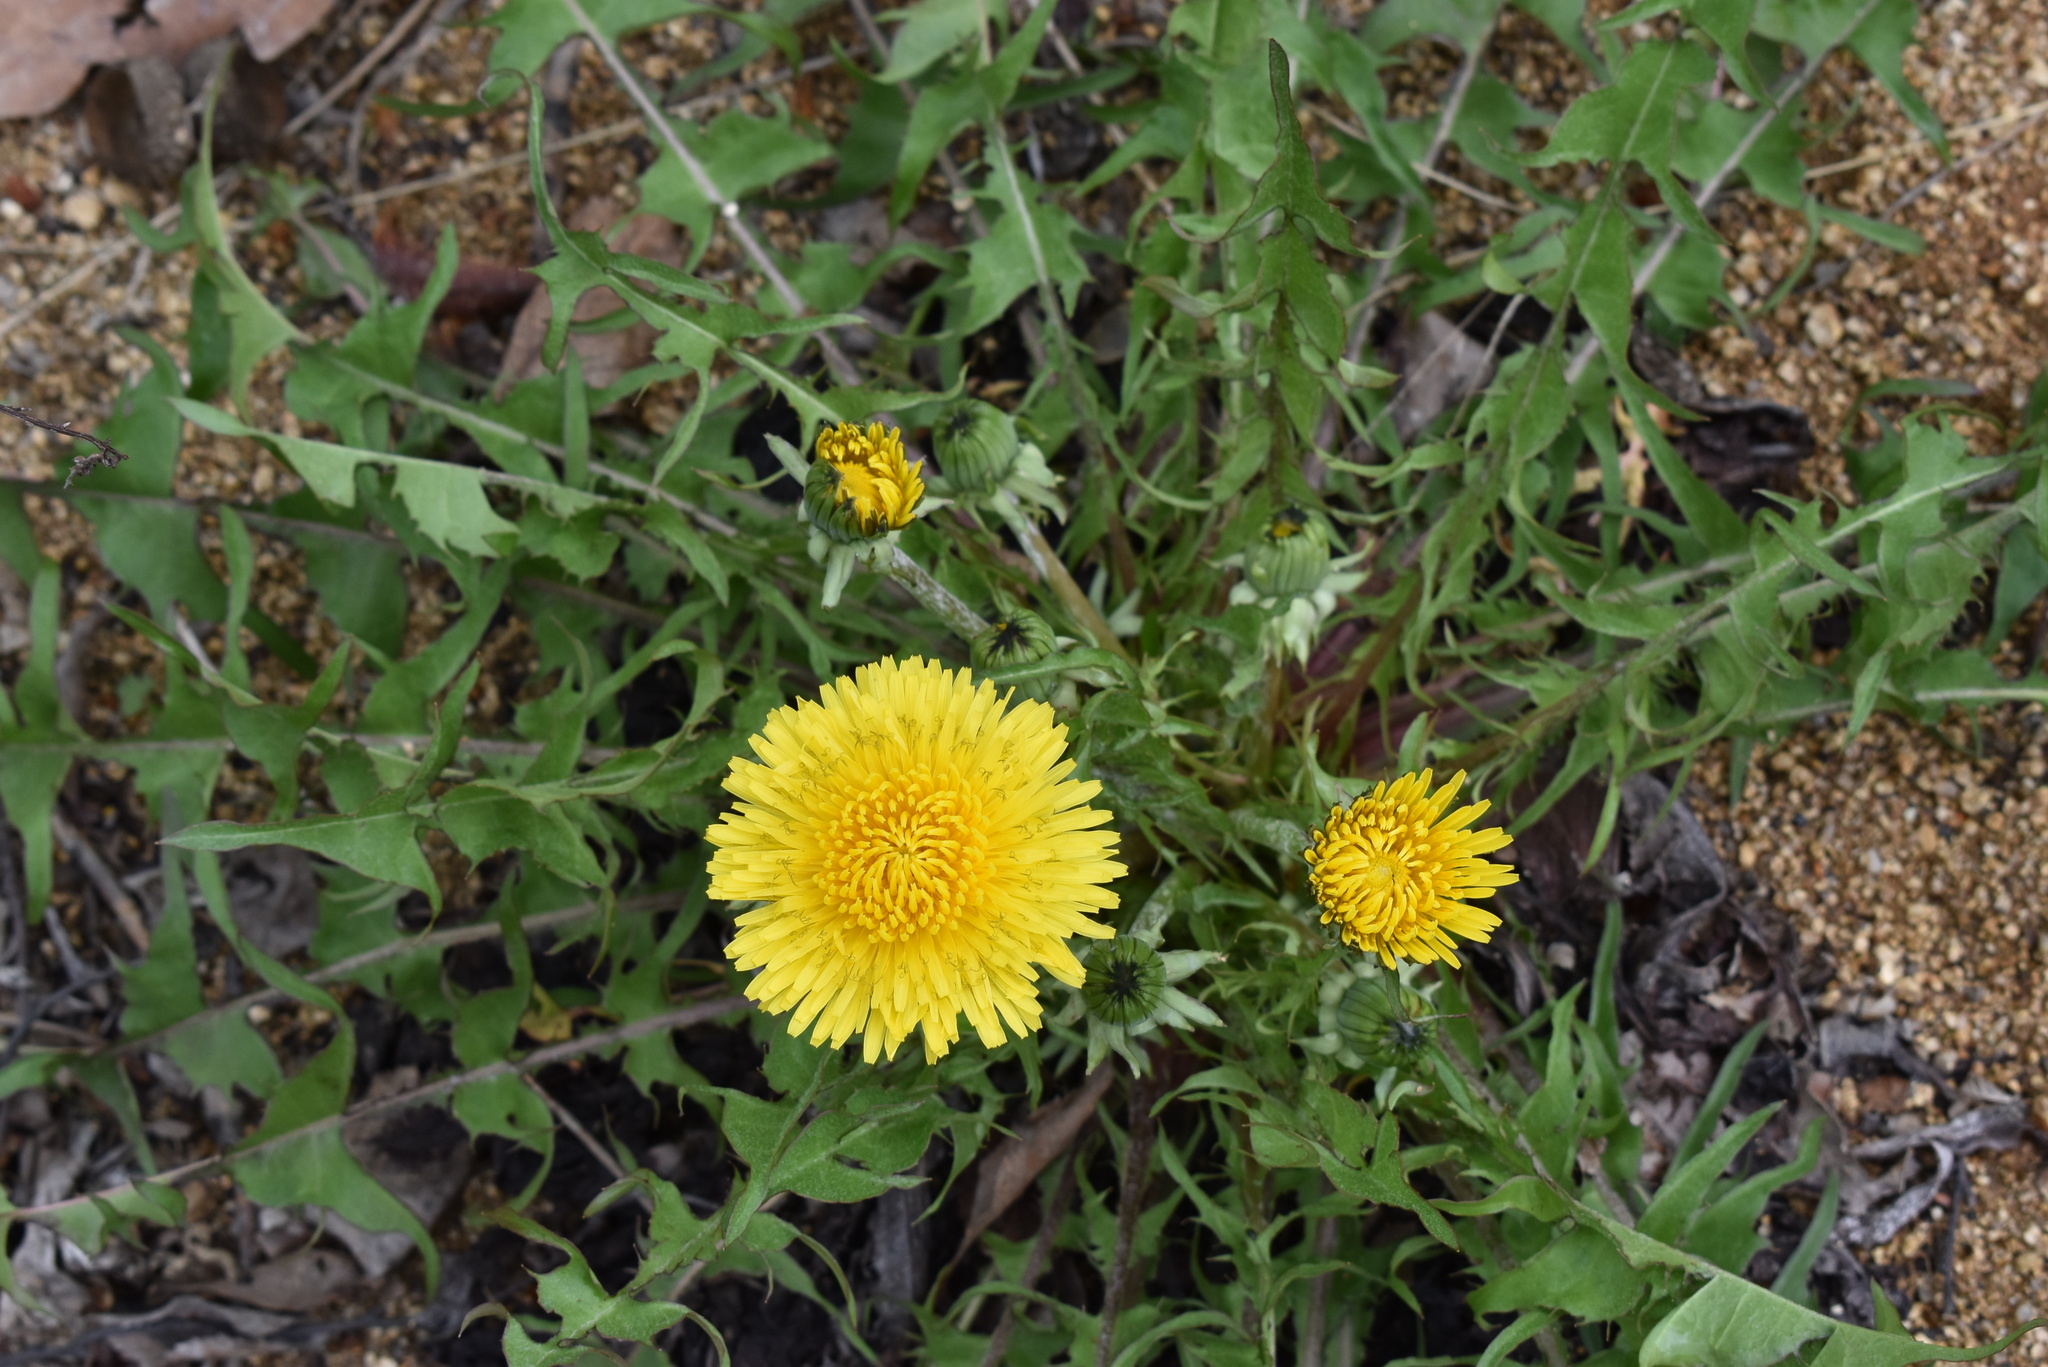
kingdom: Plantae
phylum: Tracheophyta
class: Magnoliopsida
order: Asterales
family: Asteraceae
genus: Taraxacum
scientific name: Taraxacum officinale
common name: Common dandelion
